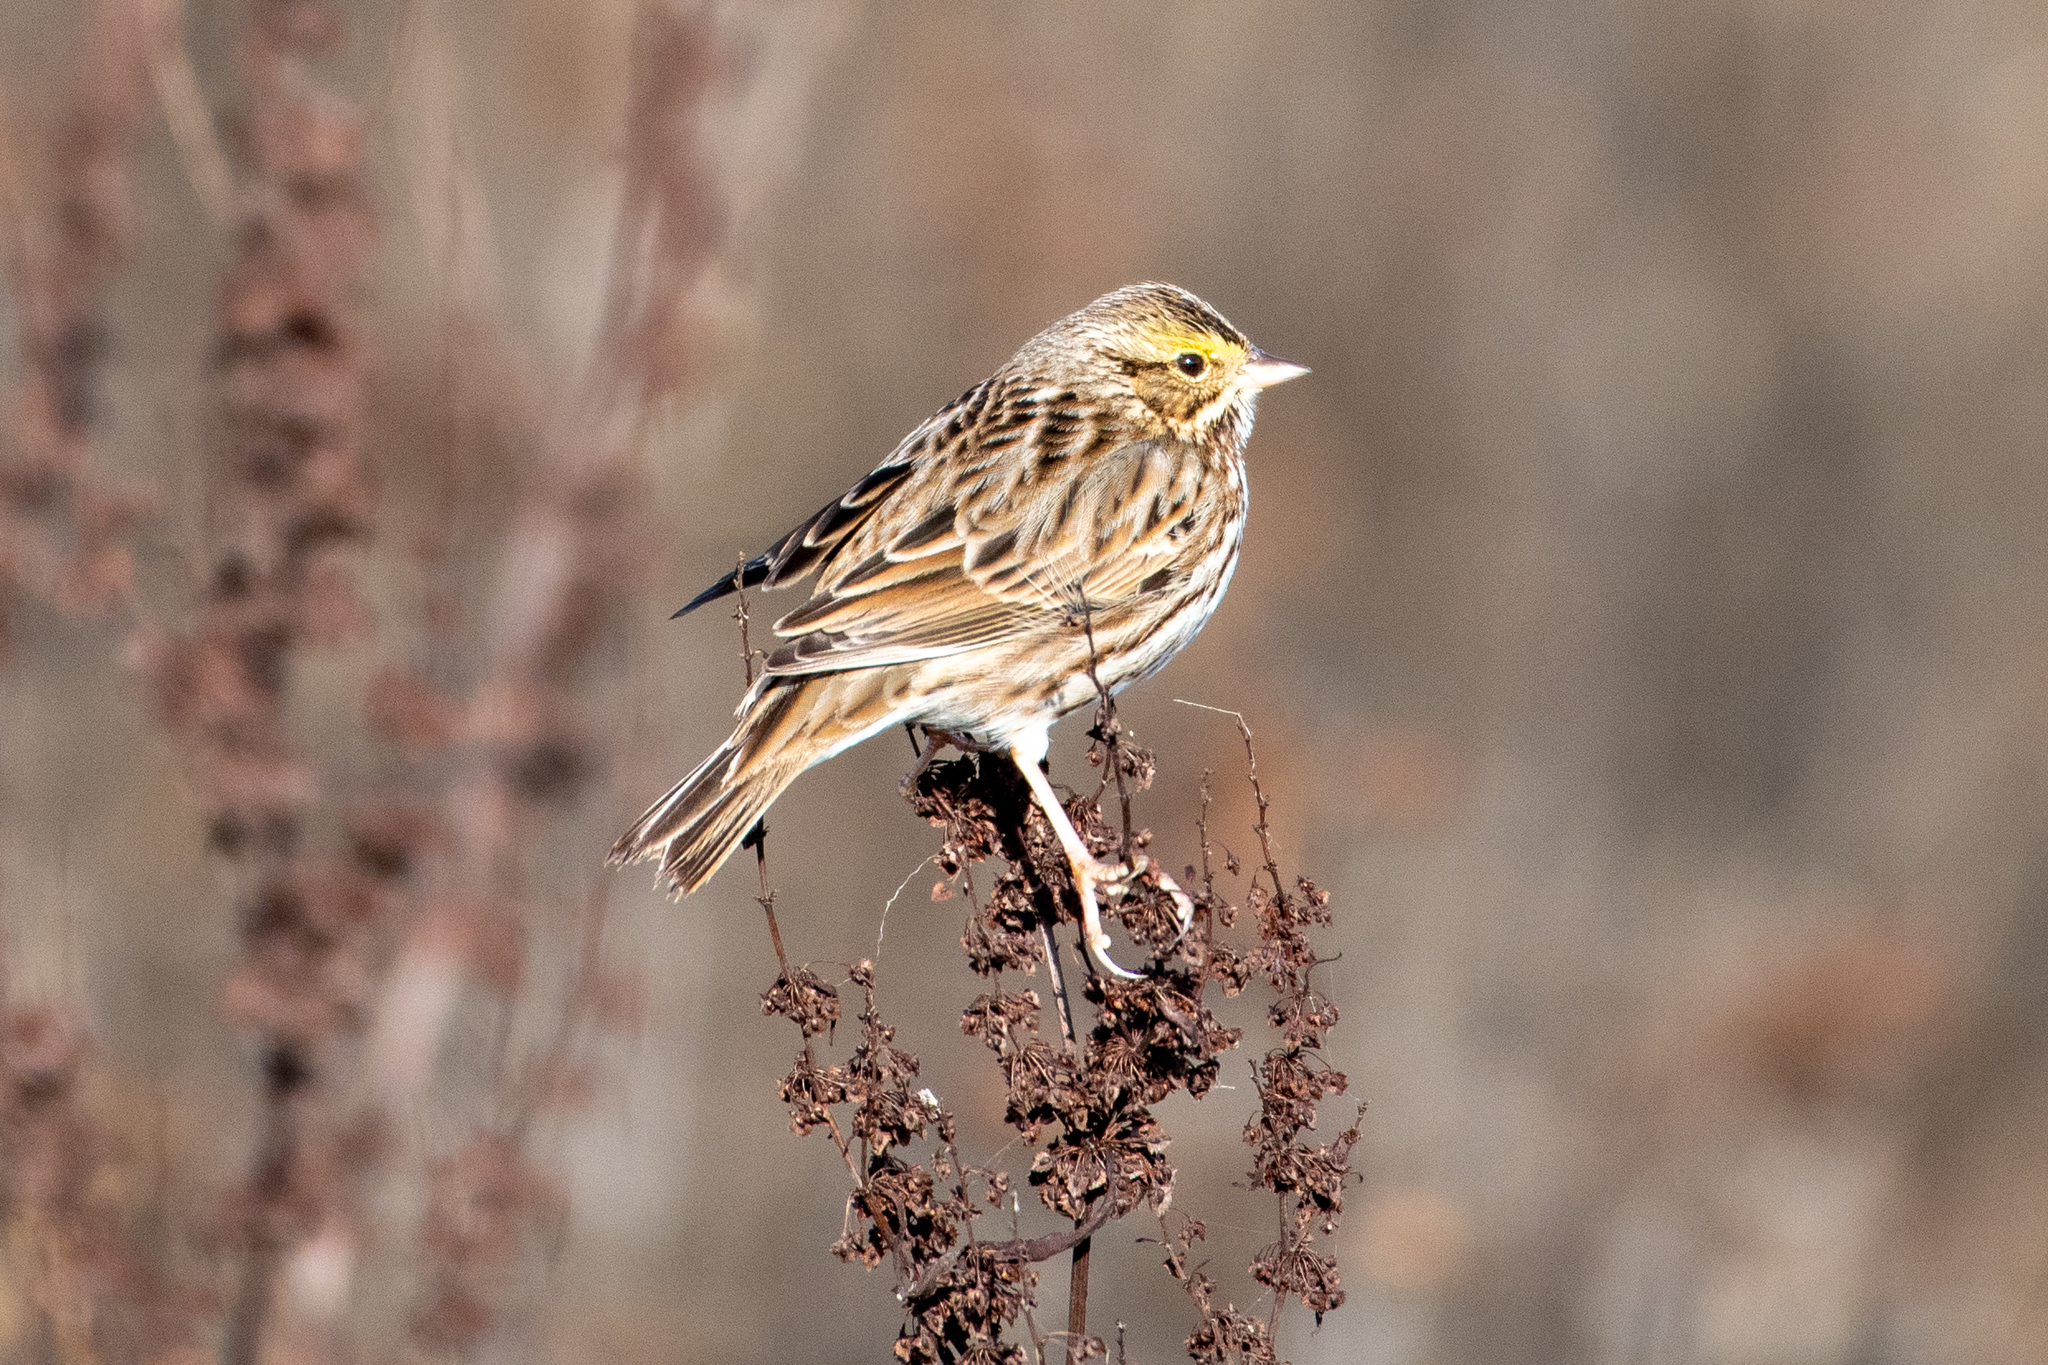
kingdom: Animalia
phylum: Chordata
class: Aves
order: Passeriformes
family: Passerellidae
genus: Passerculus
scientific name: Passerculus sandwichensis
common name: Savannah sparrow
